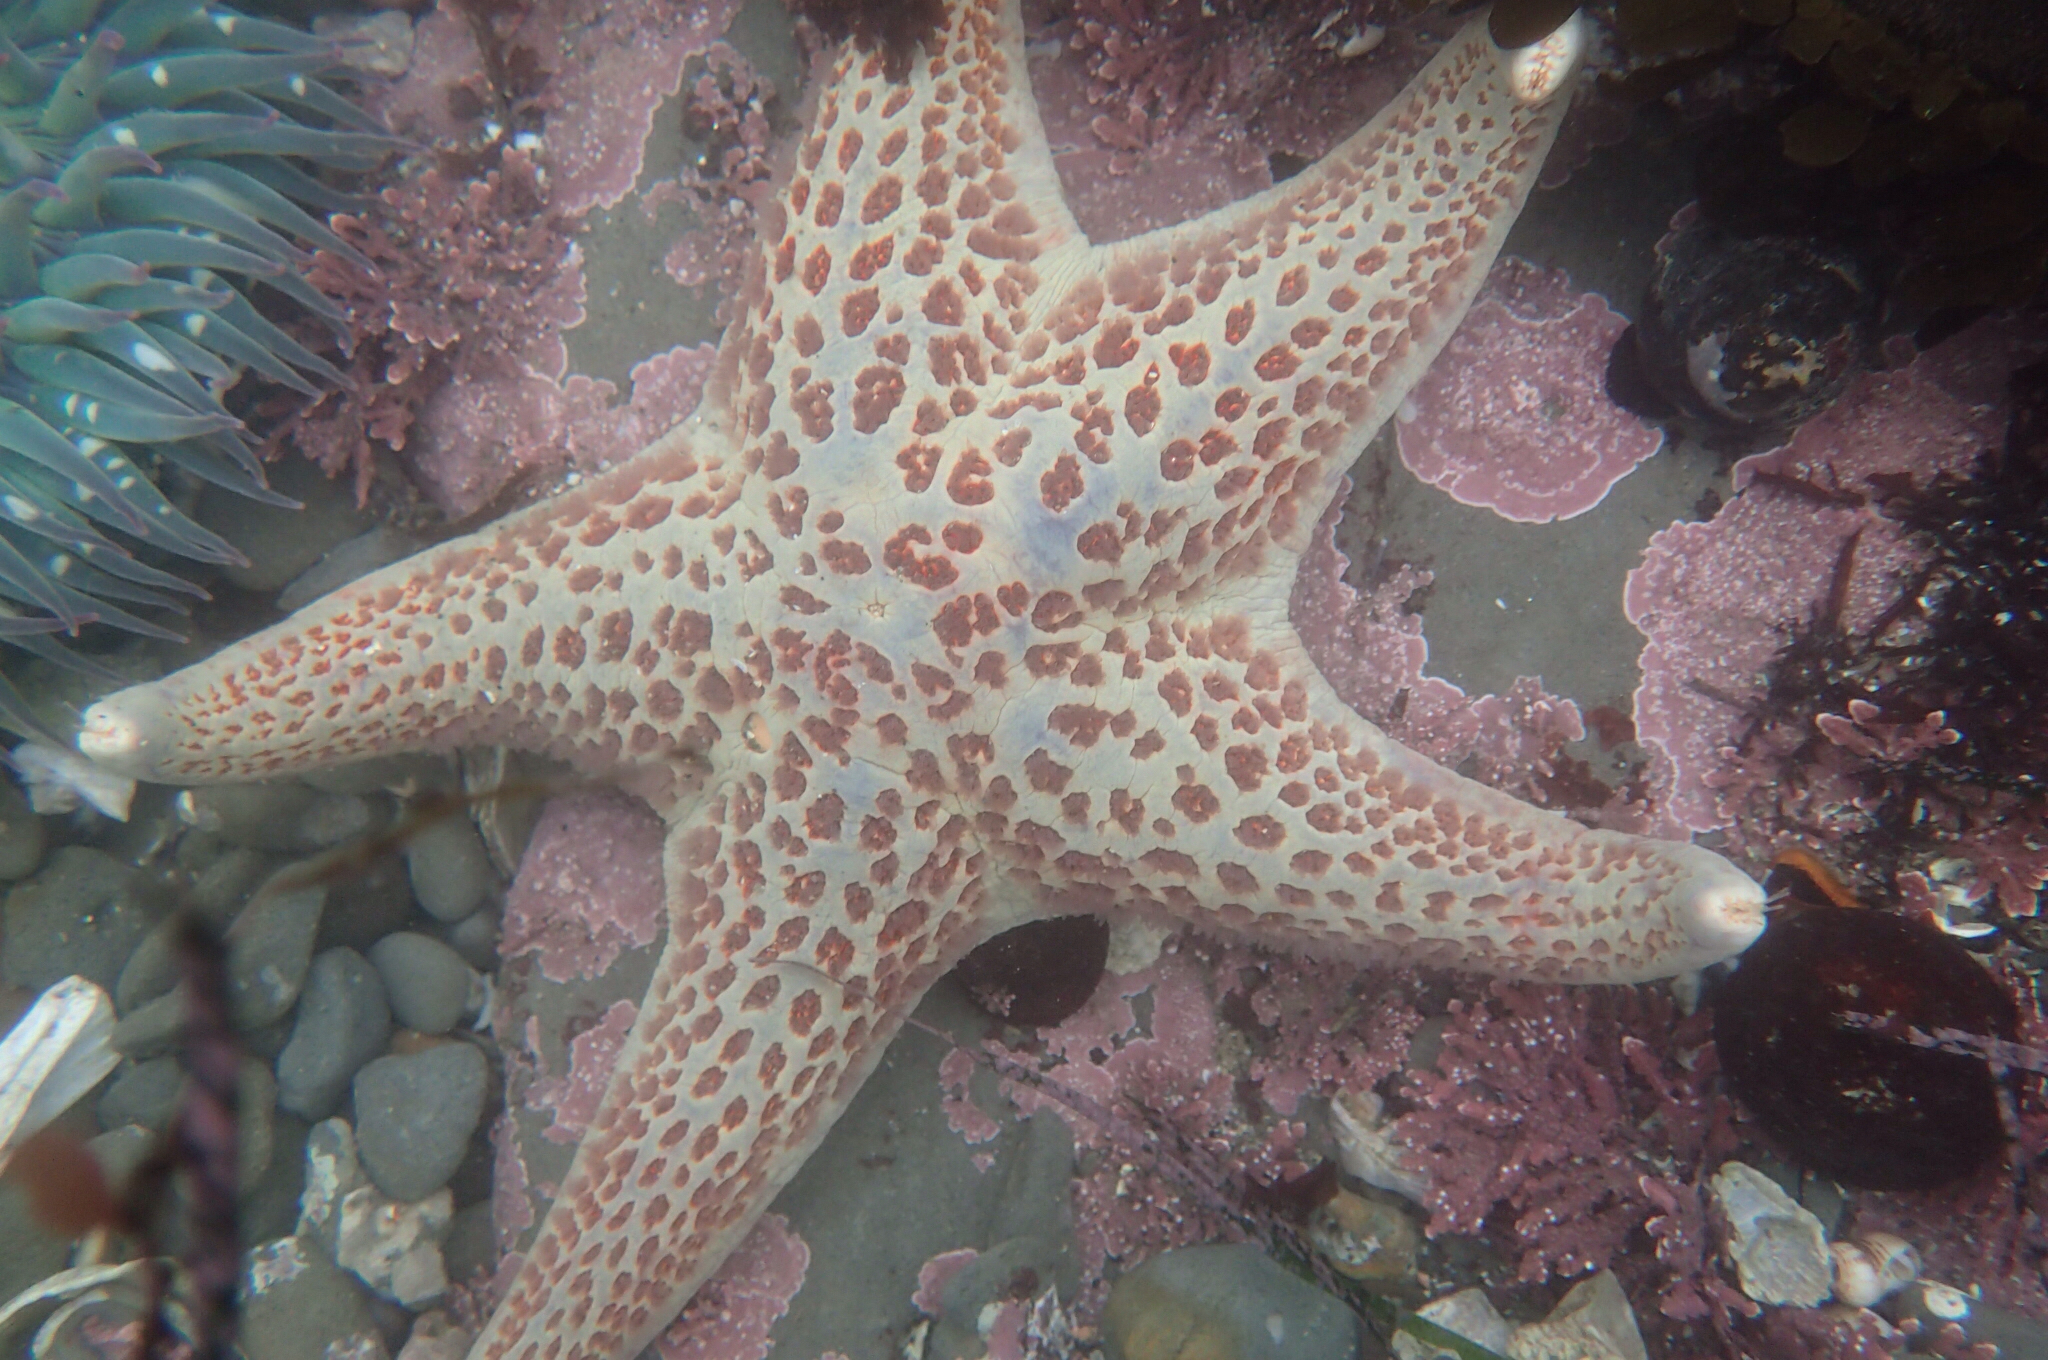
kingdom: Animalia
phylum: Echinodermata
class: Asteroidea
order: Valvatida
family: Asteropseidae
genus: Dermasterias
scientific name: Dermasterias imbricata
